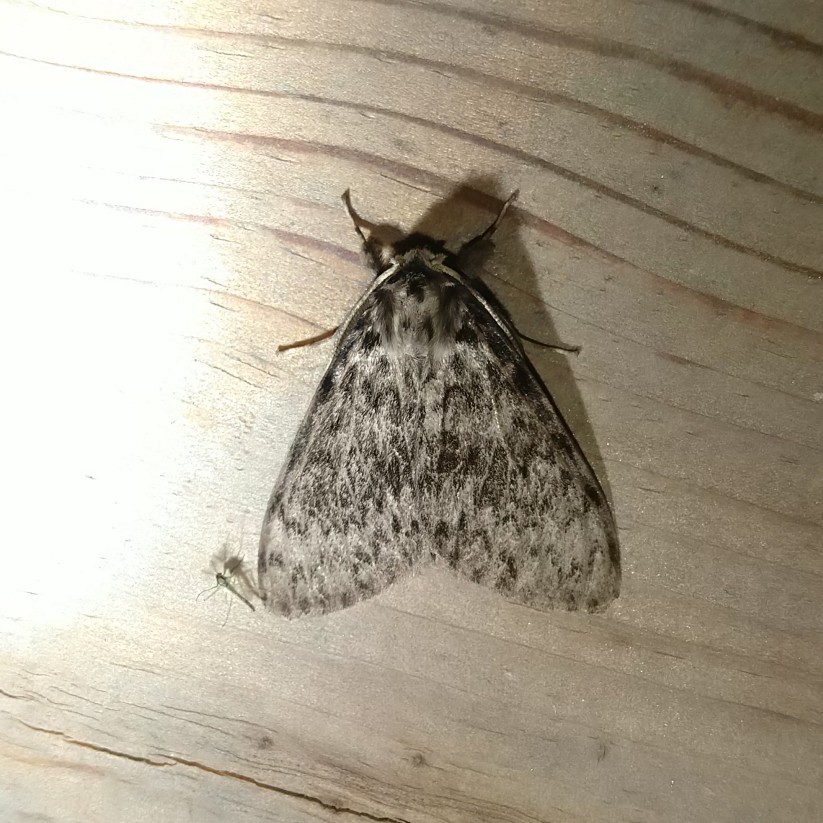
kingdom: Animalia
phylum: Arthropoda
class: Insecta
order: Lepidoptera
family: Erebidae
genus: Lymantria
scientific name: Lymantria monacha
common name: Black arches
